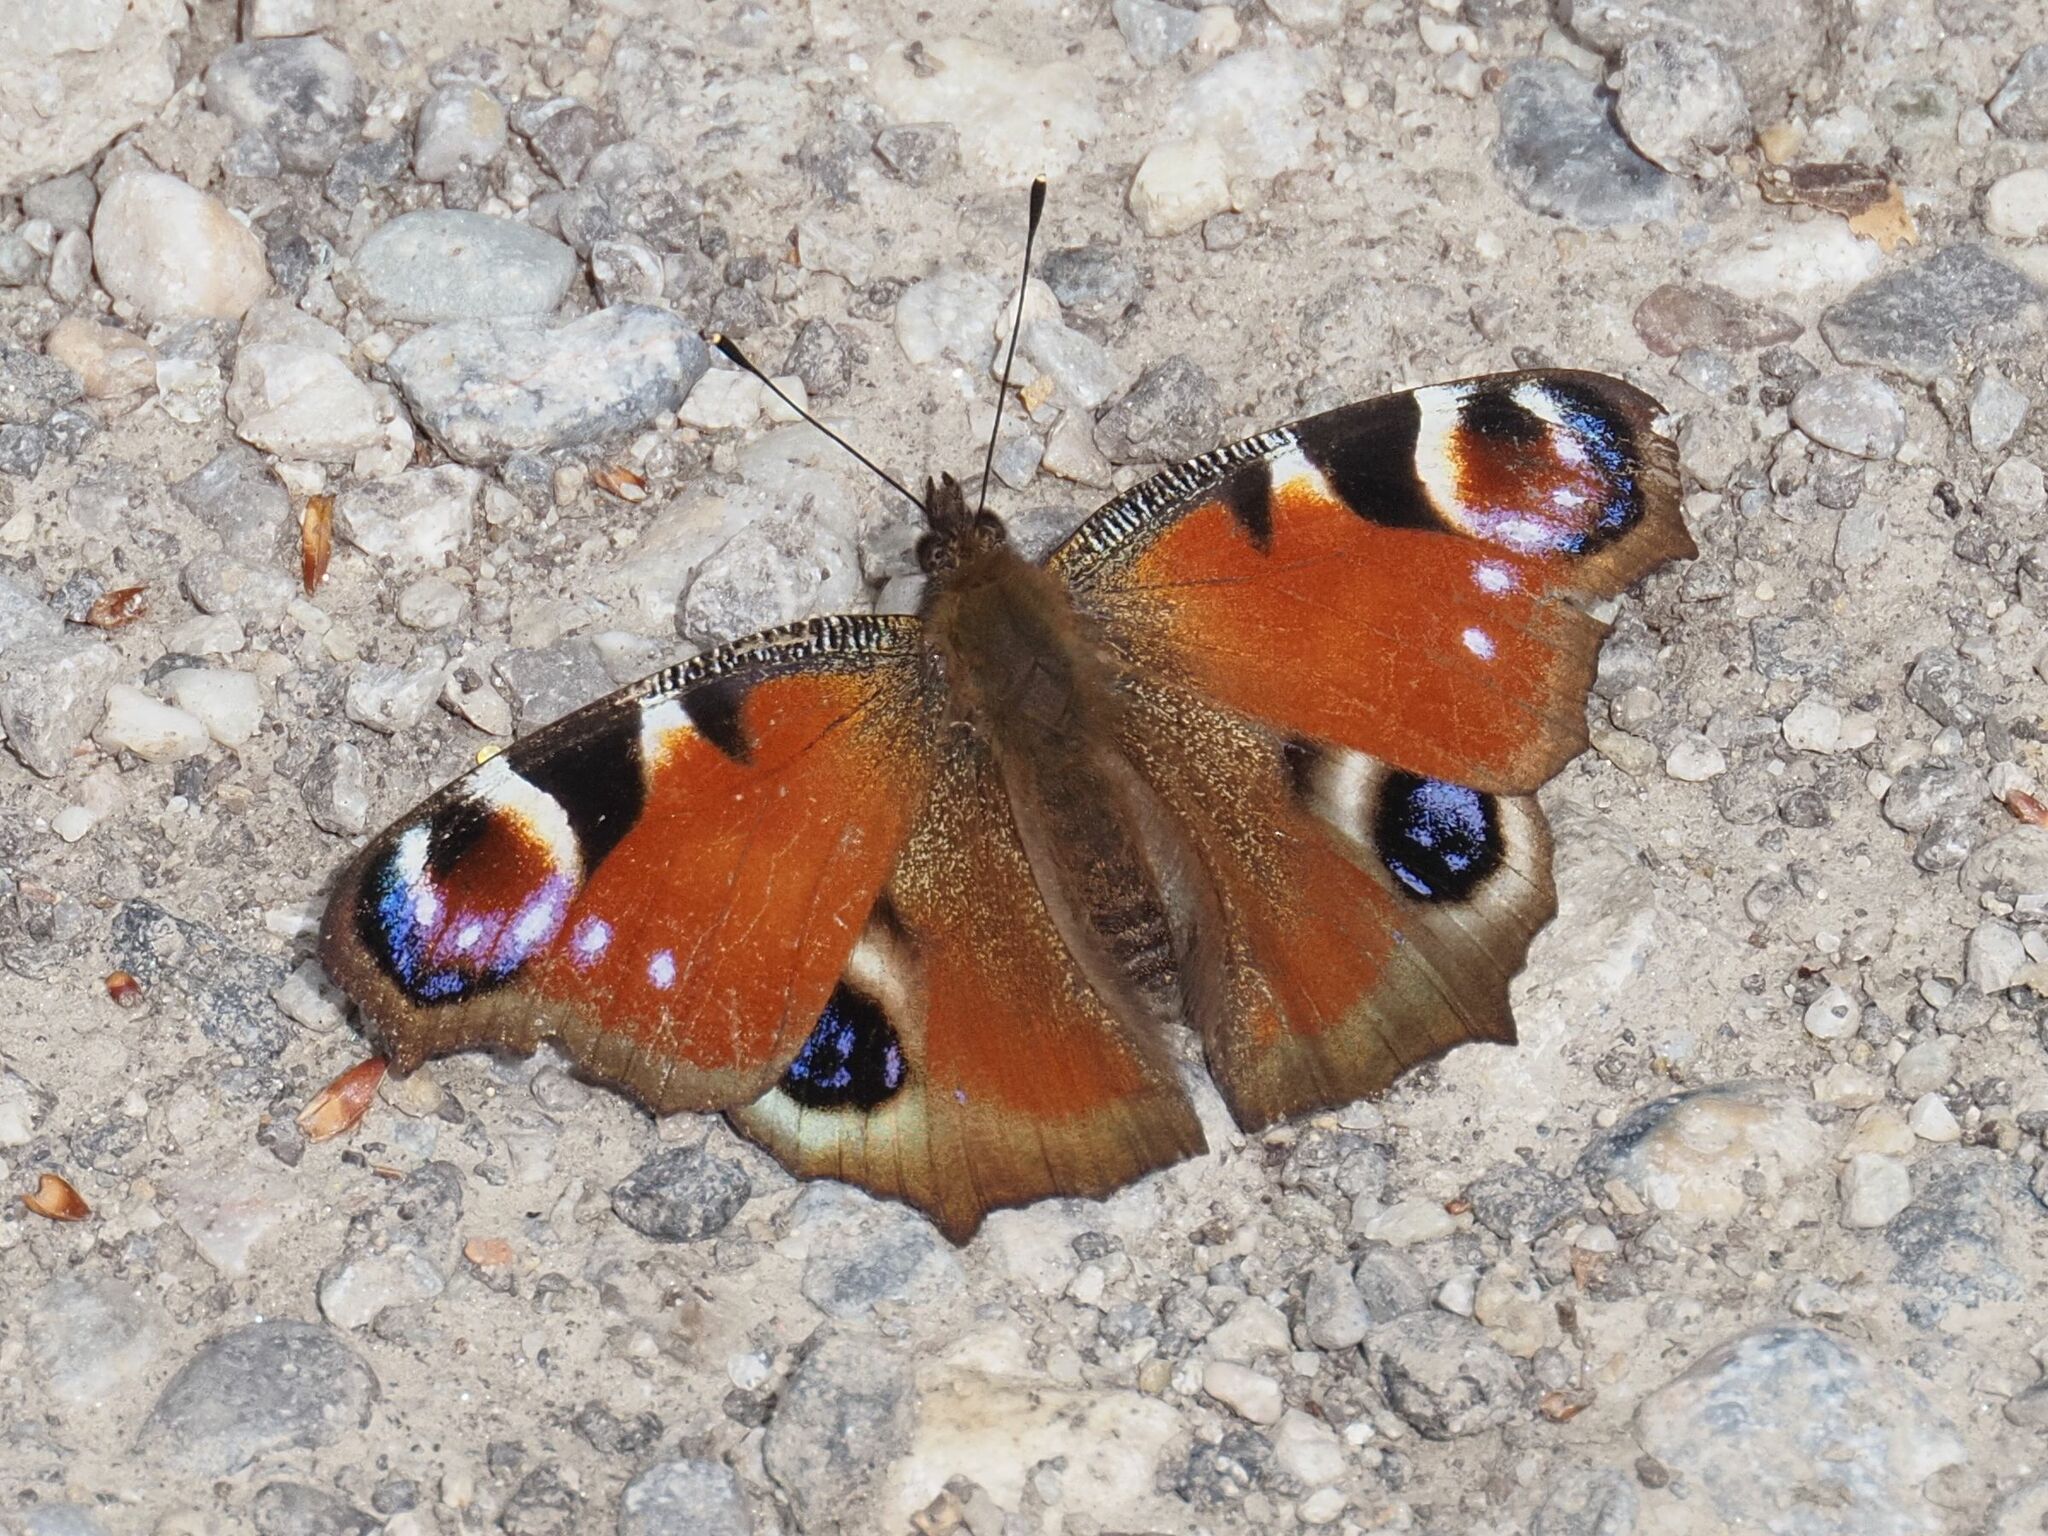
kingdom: Animalia
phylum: Arthropoda
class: Insecta
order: Lepidoptera
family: Nymphalidae
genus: Aglais
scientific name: Aglais io
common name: Peacock
